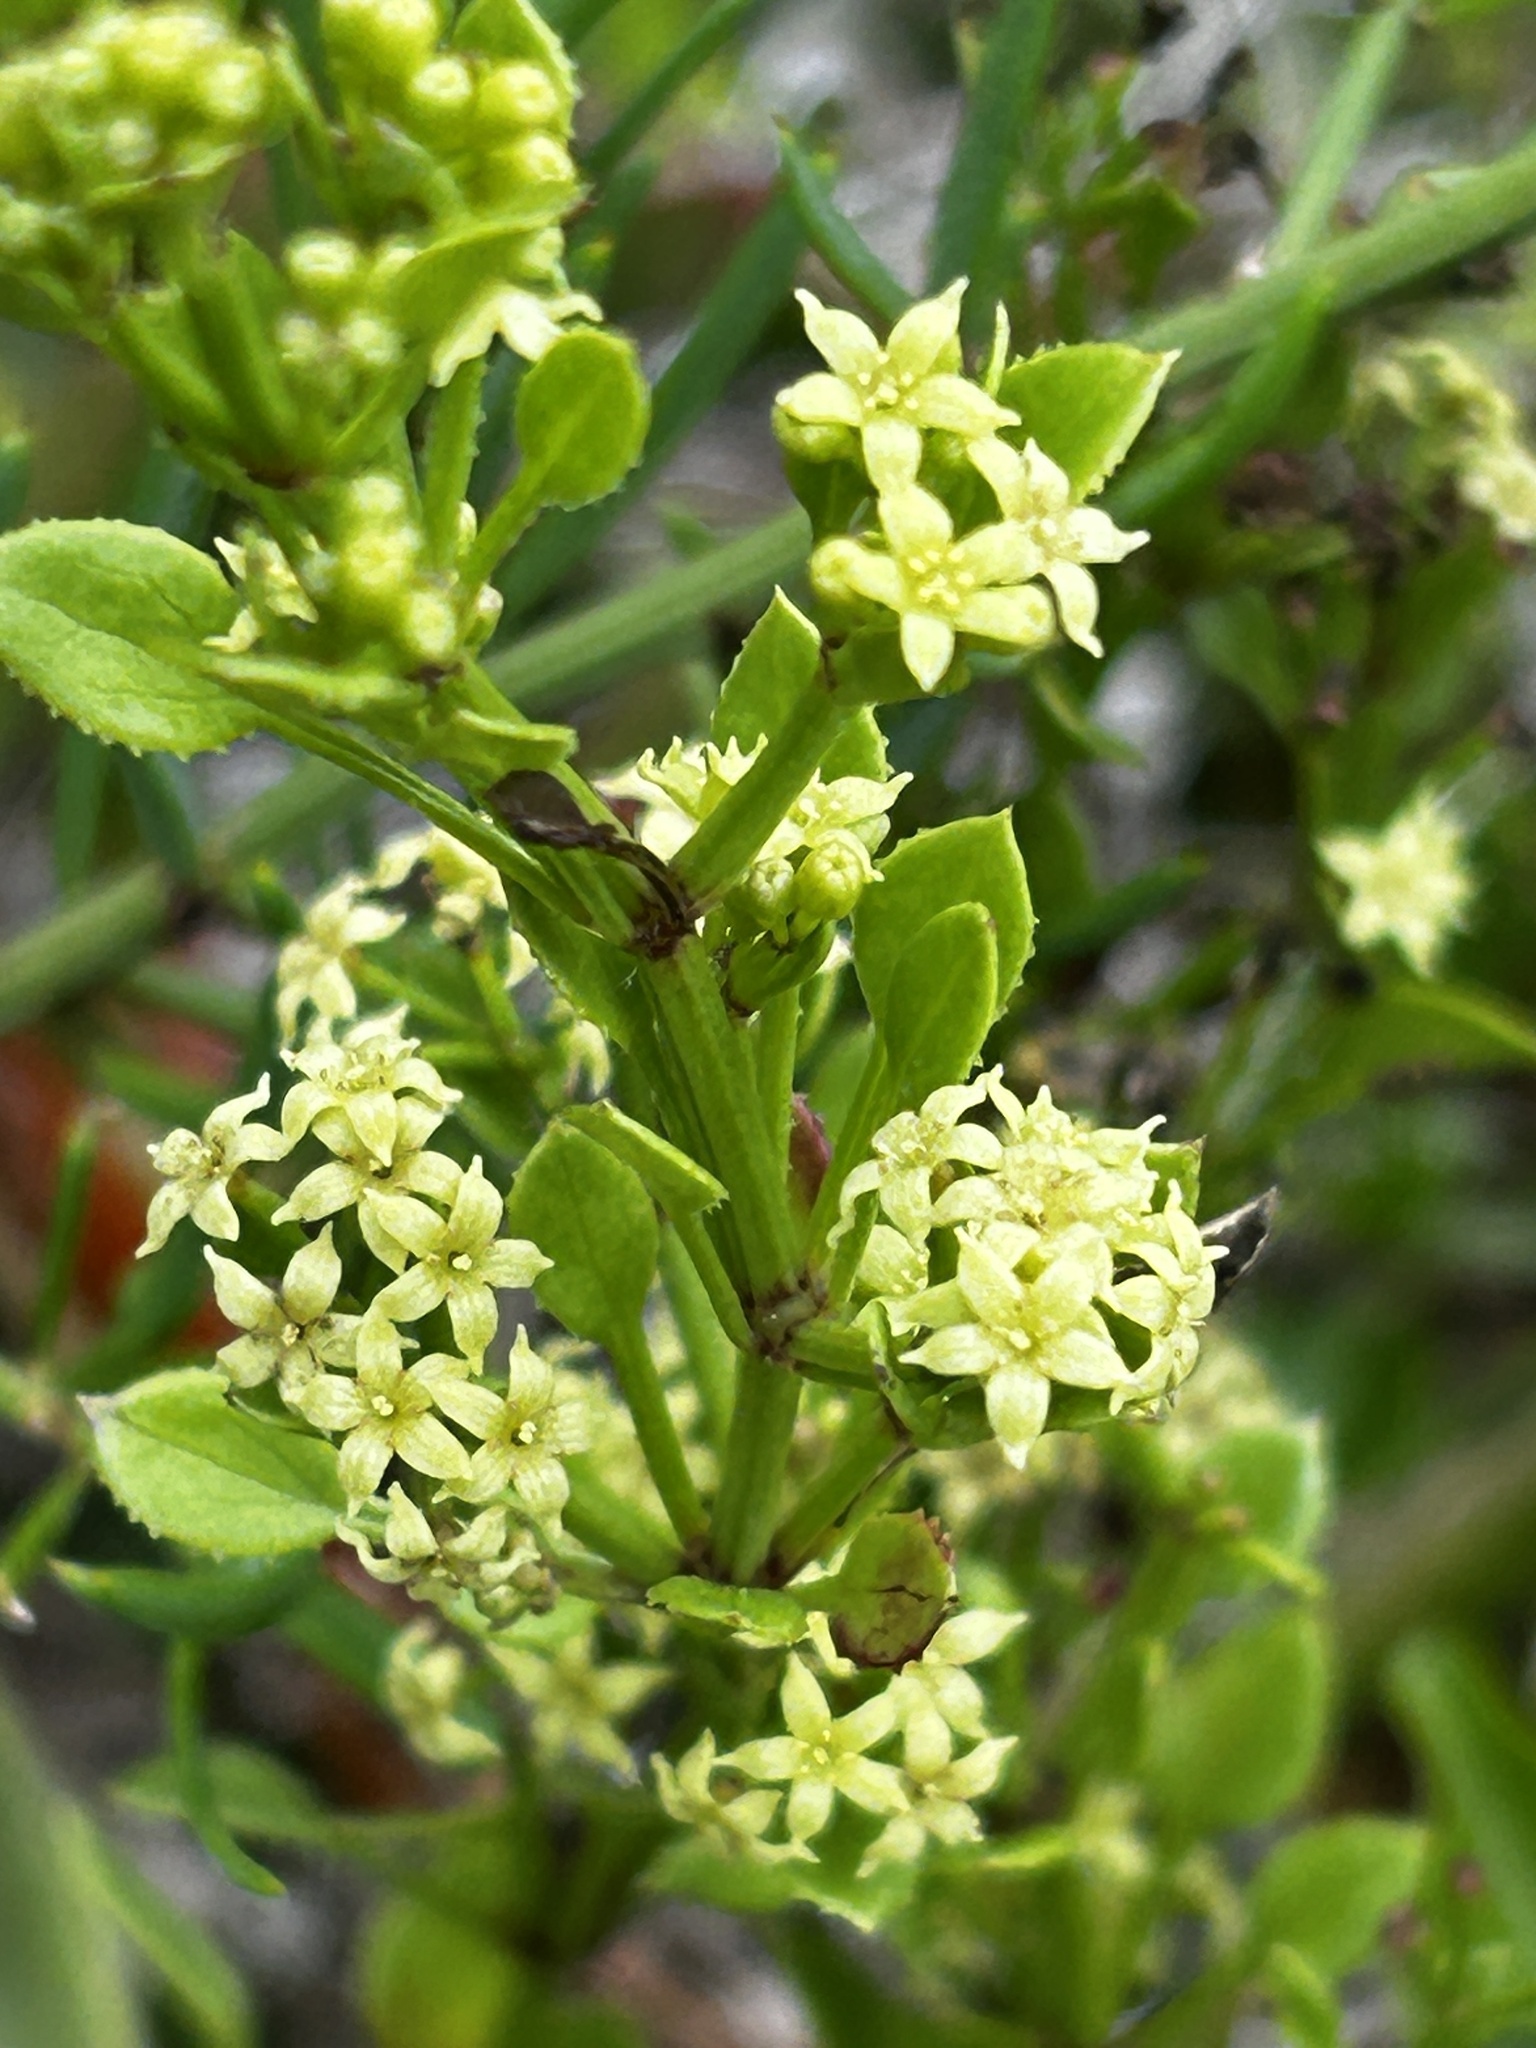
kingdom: Plantae
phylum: Tracheophyta
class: Magnoliopsida
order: Gentianales
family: Rubiaceae
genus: Rubia
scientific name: Rubia petiolaris
